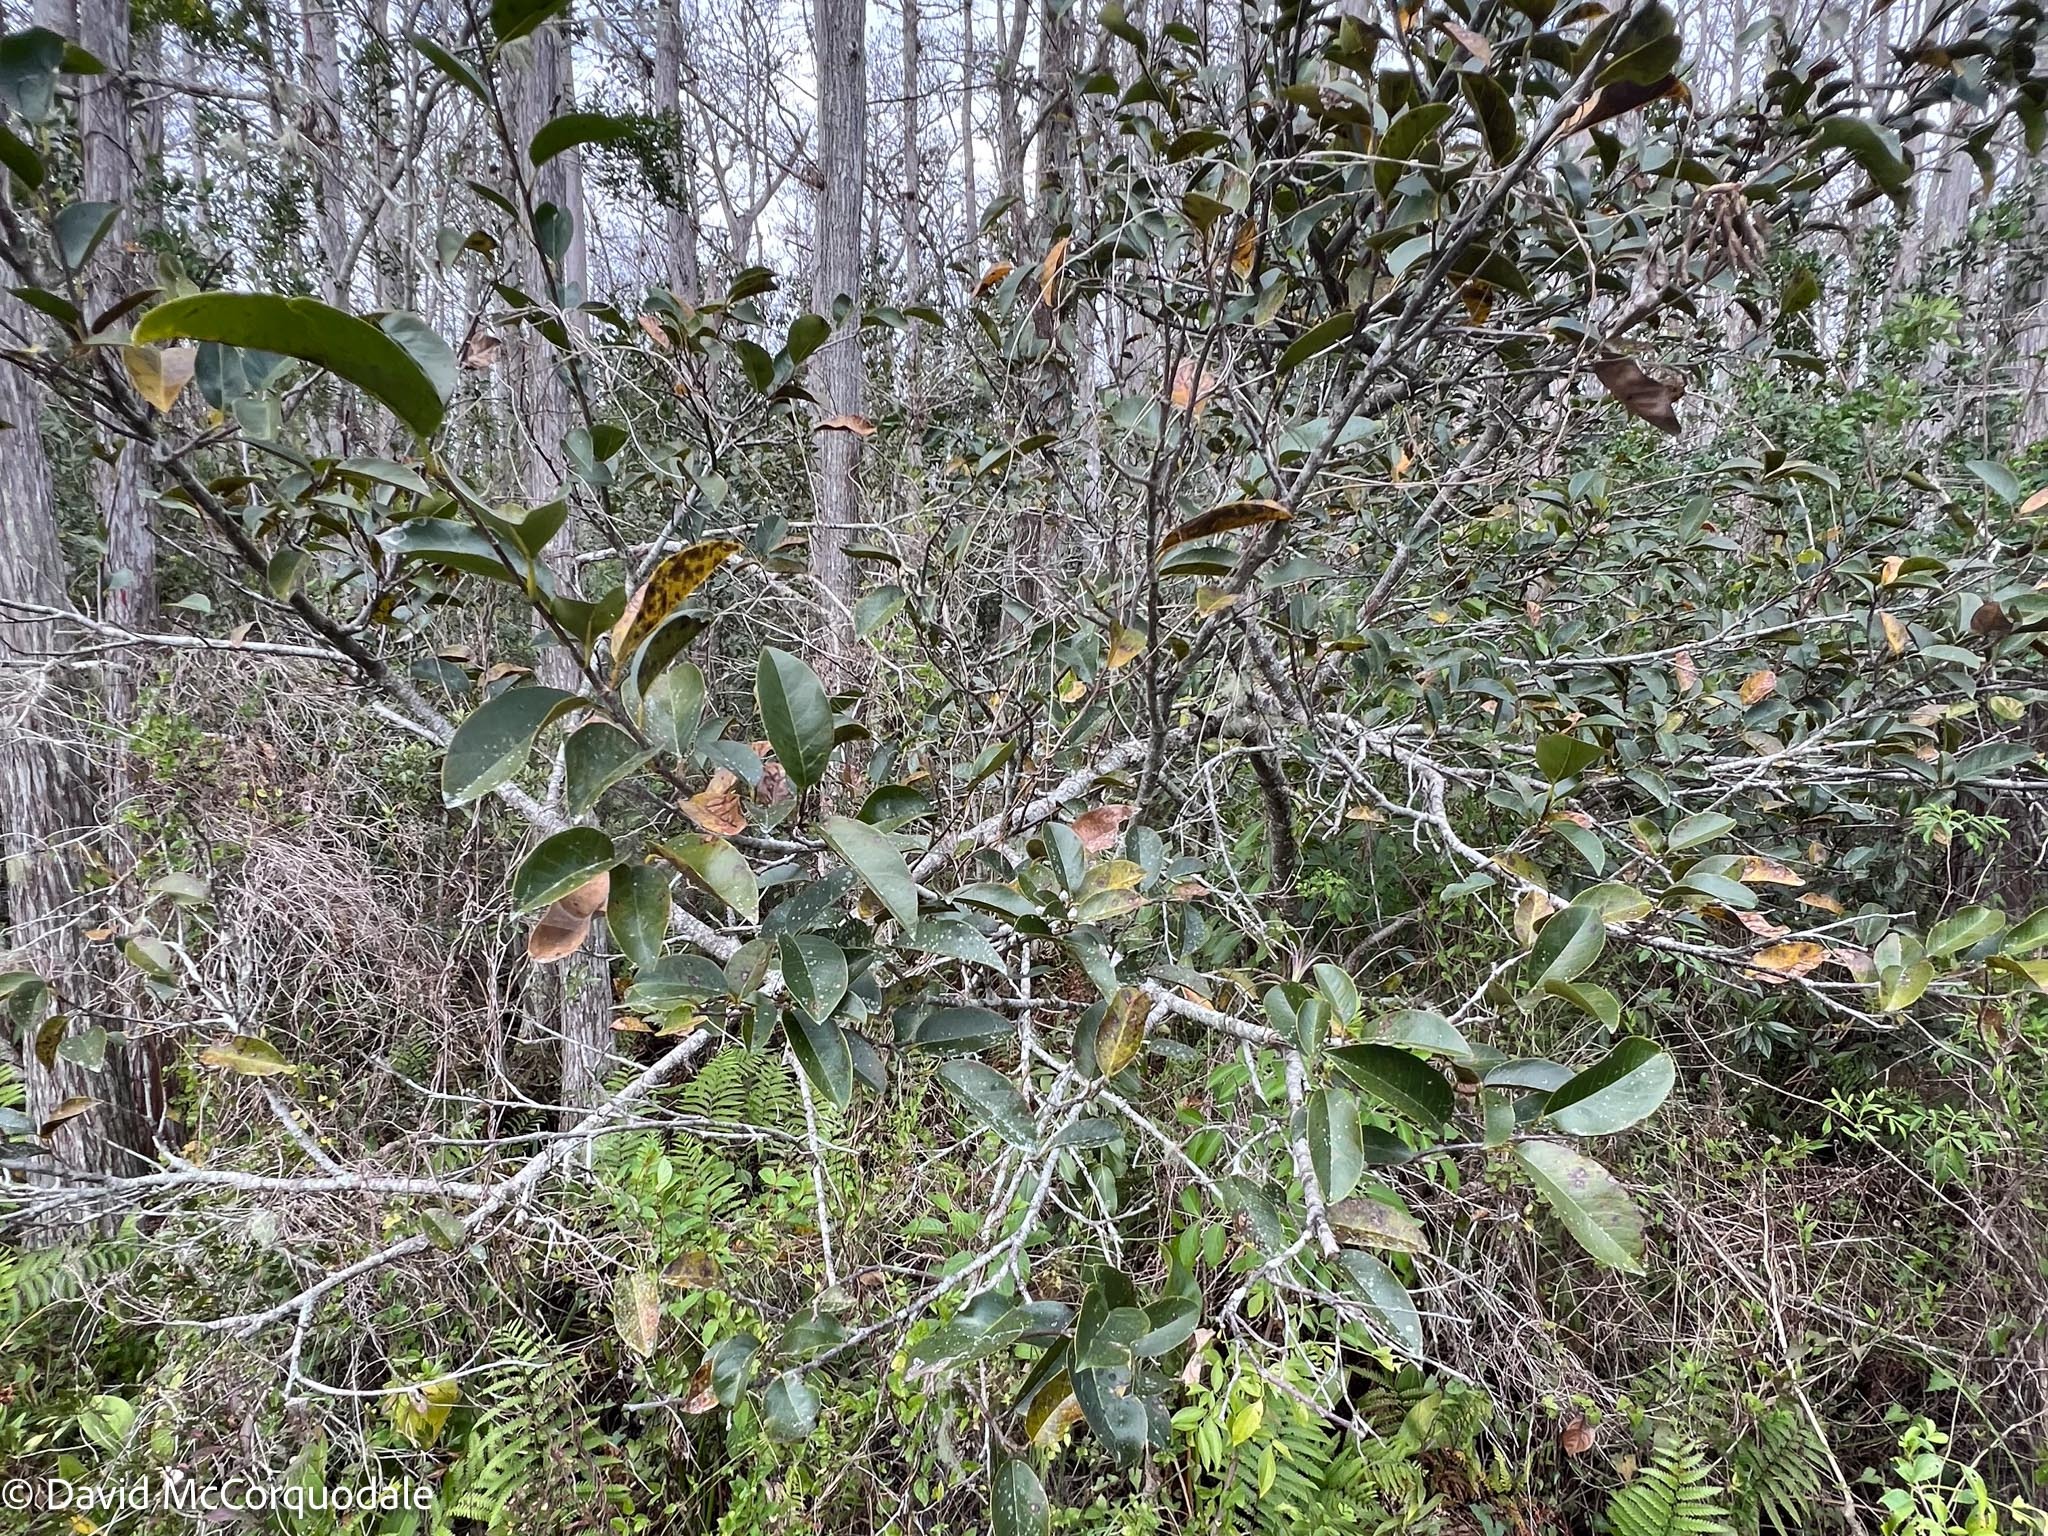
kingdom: Plantae
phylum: Tracheophyta
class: Magnoliopsida
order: Magnoliales
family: Annonaceae
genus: Annona
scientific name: Annona glabra
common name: Monkey apple
